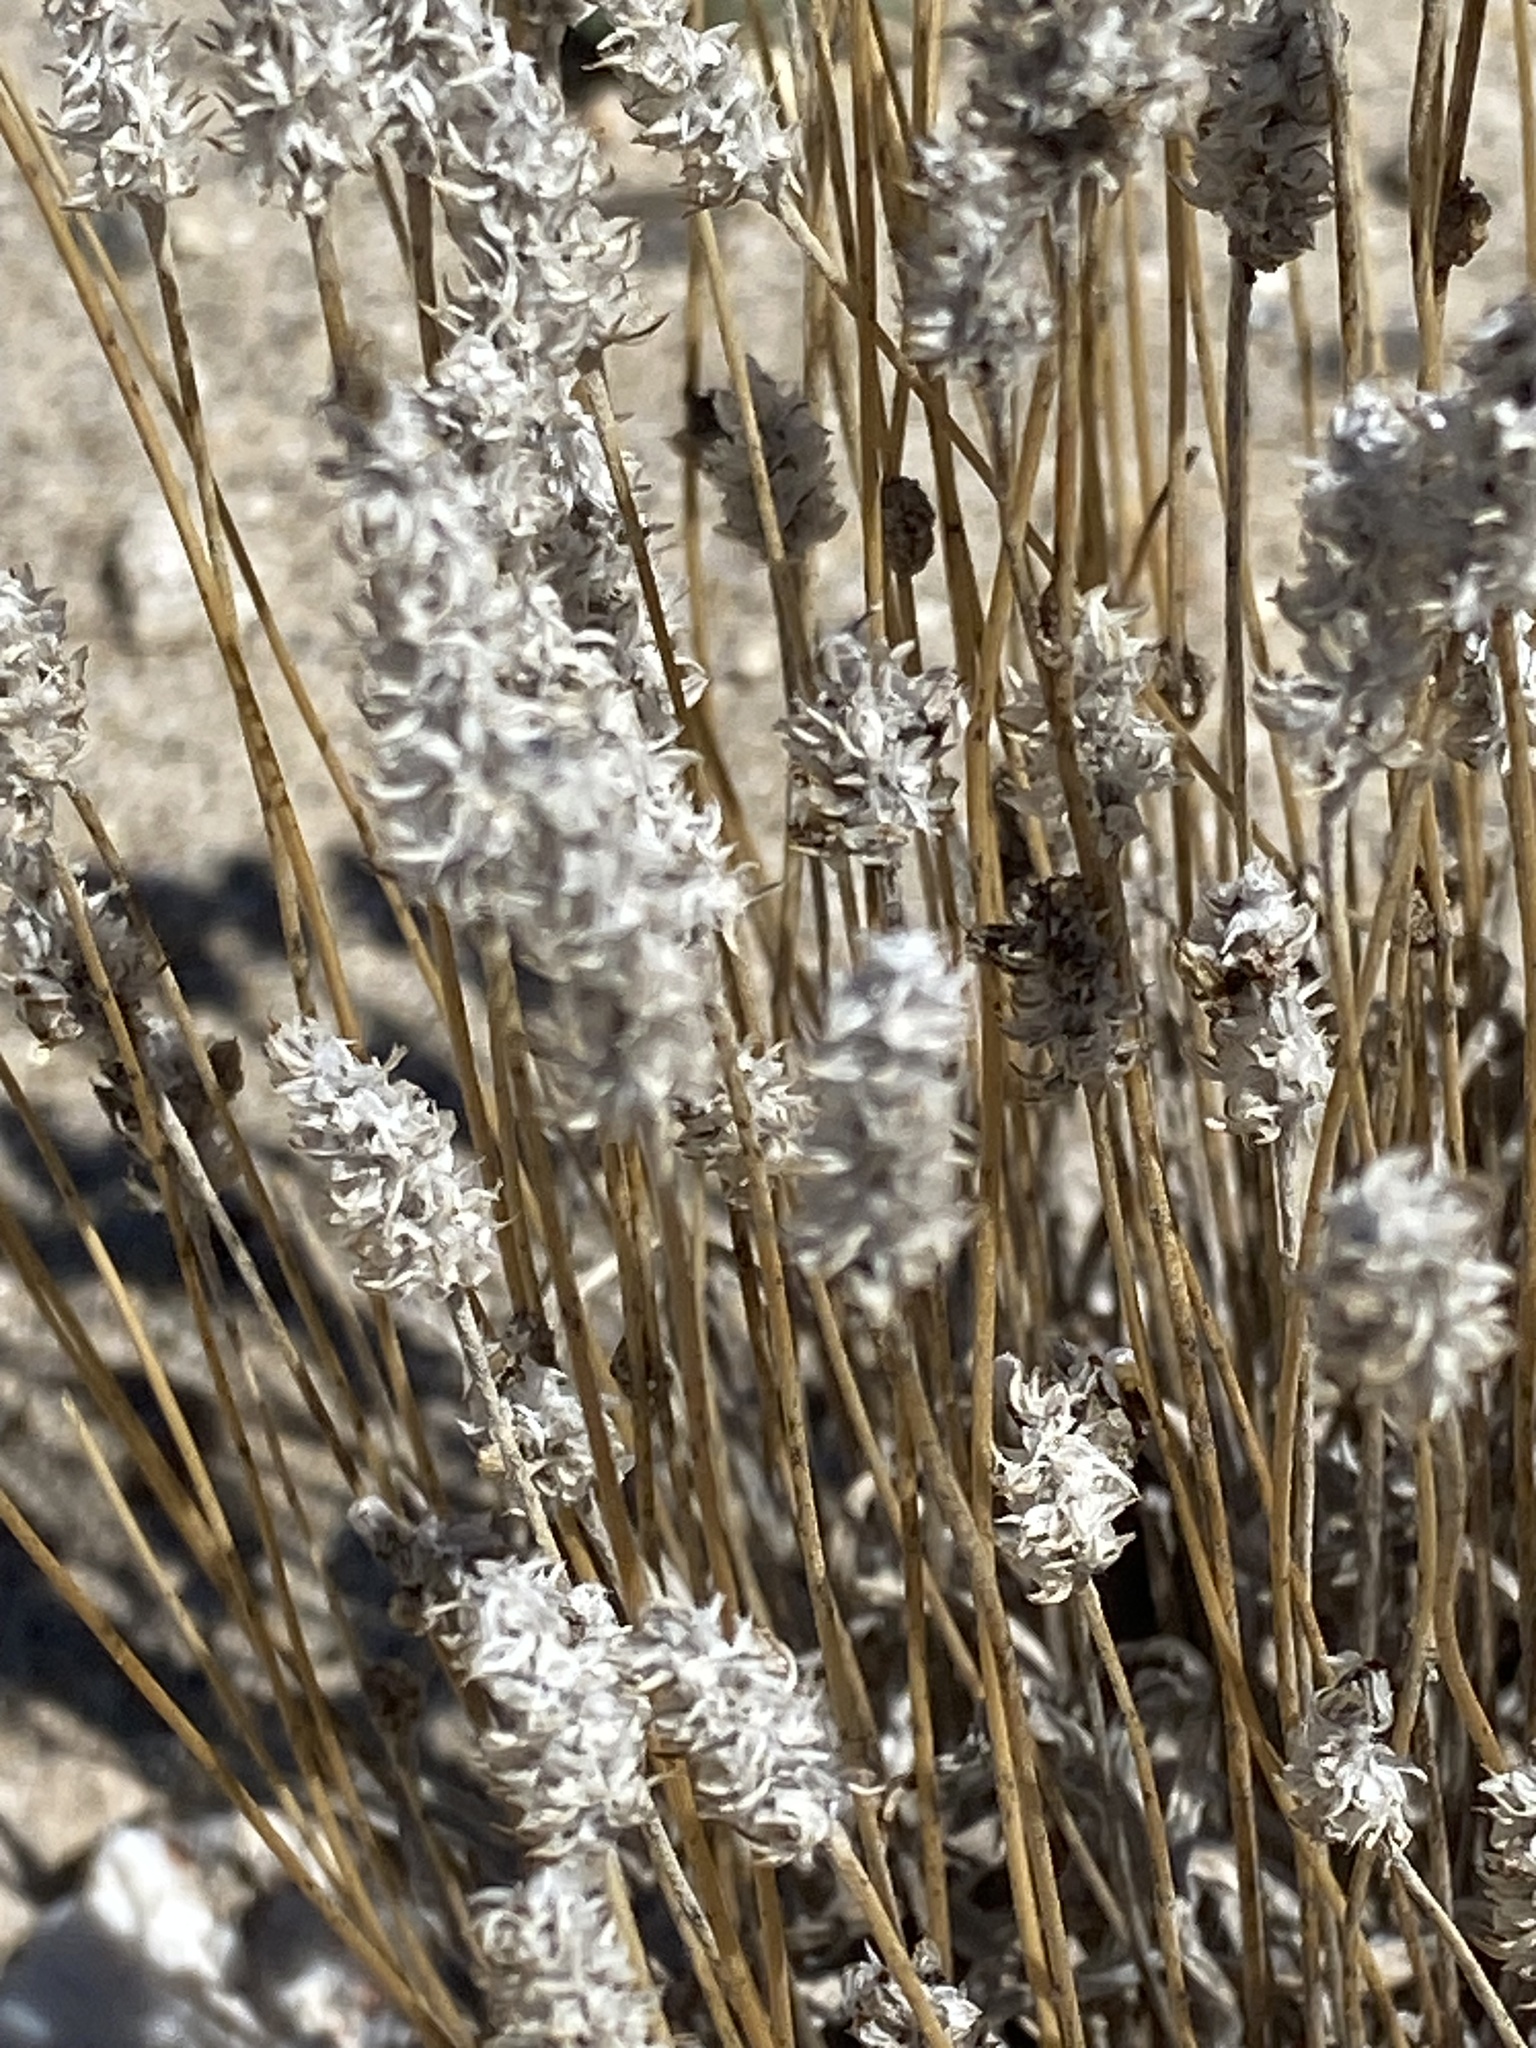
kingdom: Plantae
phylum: Tracheophyta
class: Magnoliopsida
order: Lamiales
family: Plantaginaceae
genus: Plantago
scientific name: Plantago ovata
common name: Blond plantain
